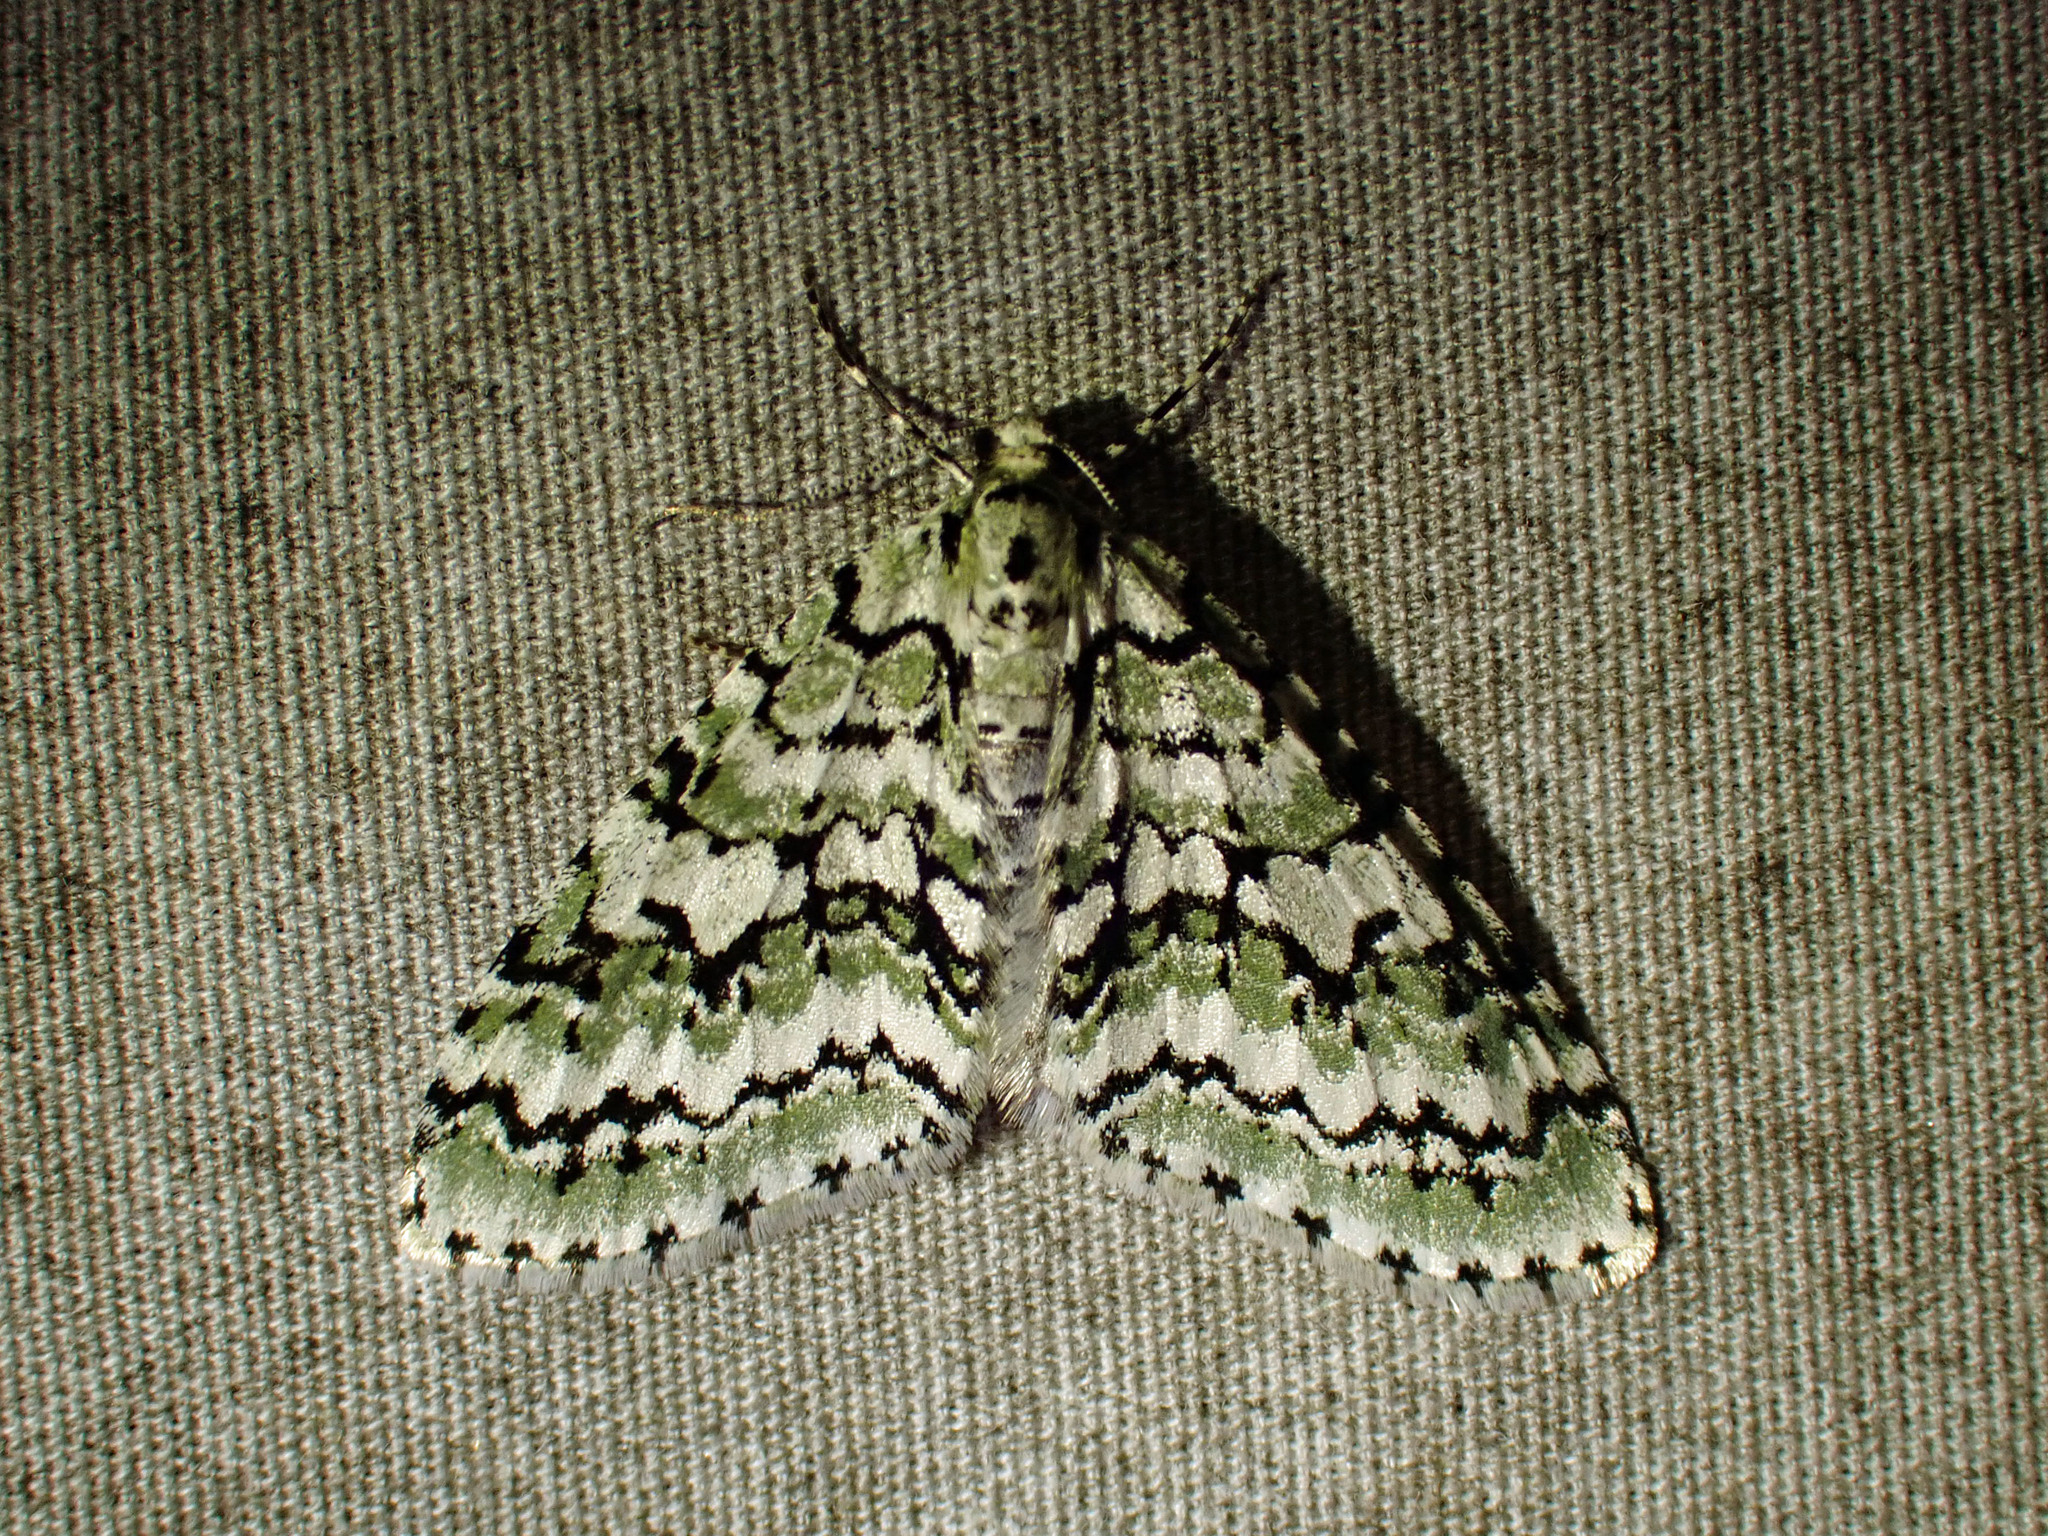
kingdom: Animalia
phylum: Arthropoda
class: Insecta
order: Lepidoptera
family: Geometridae
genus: Cladara
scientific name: Cladara atroliturata
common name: Scribbler
